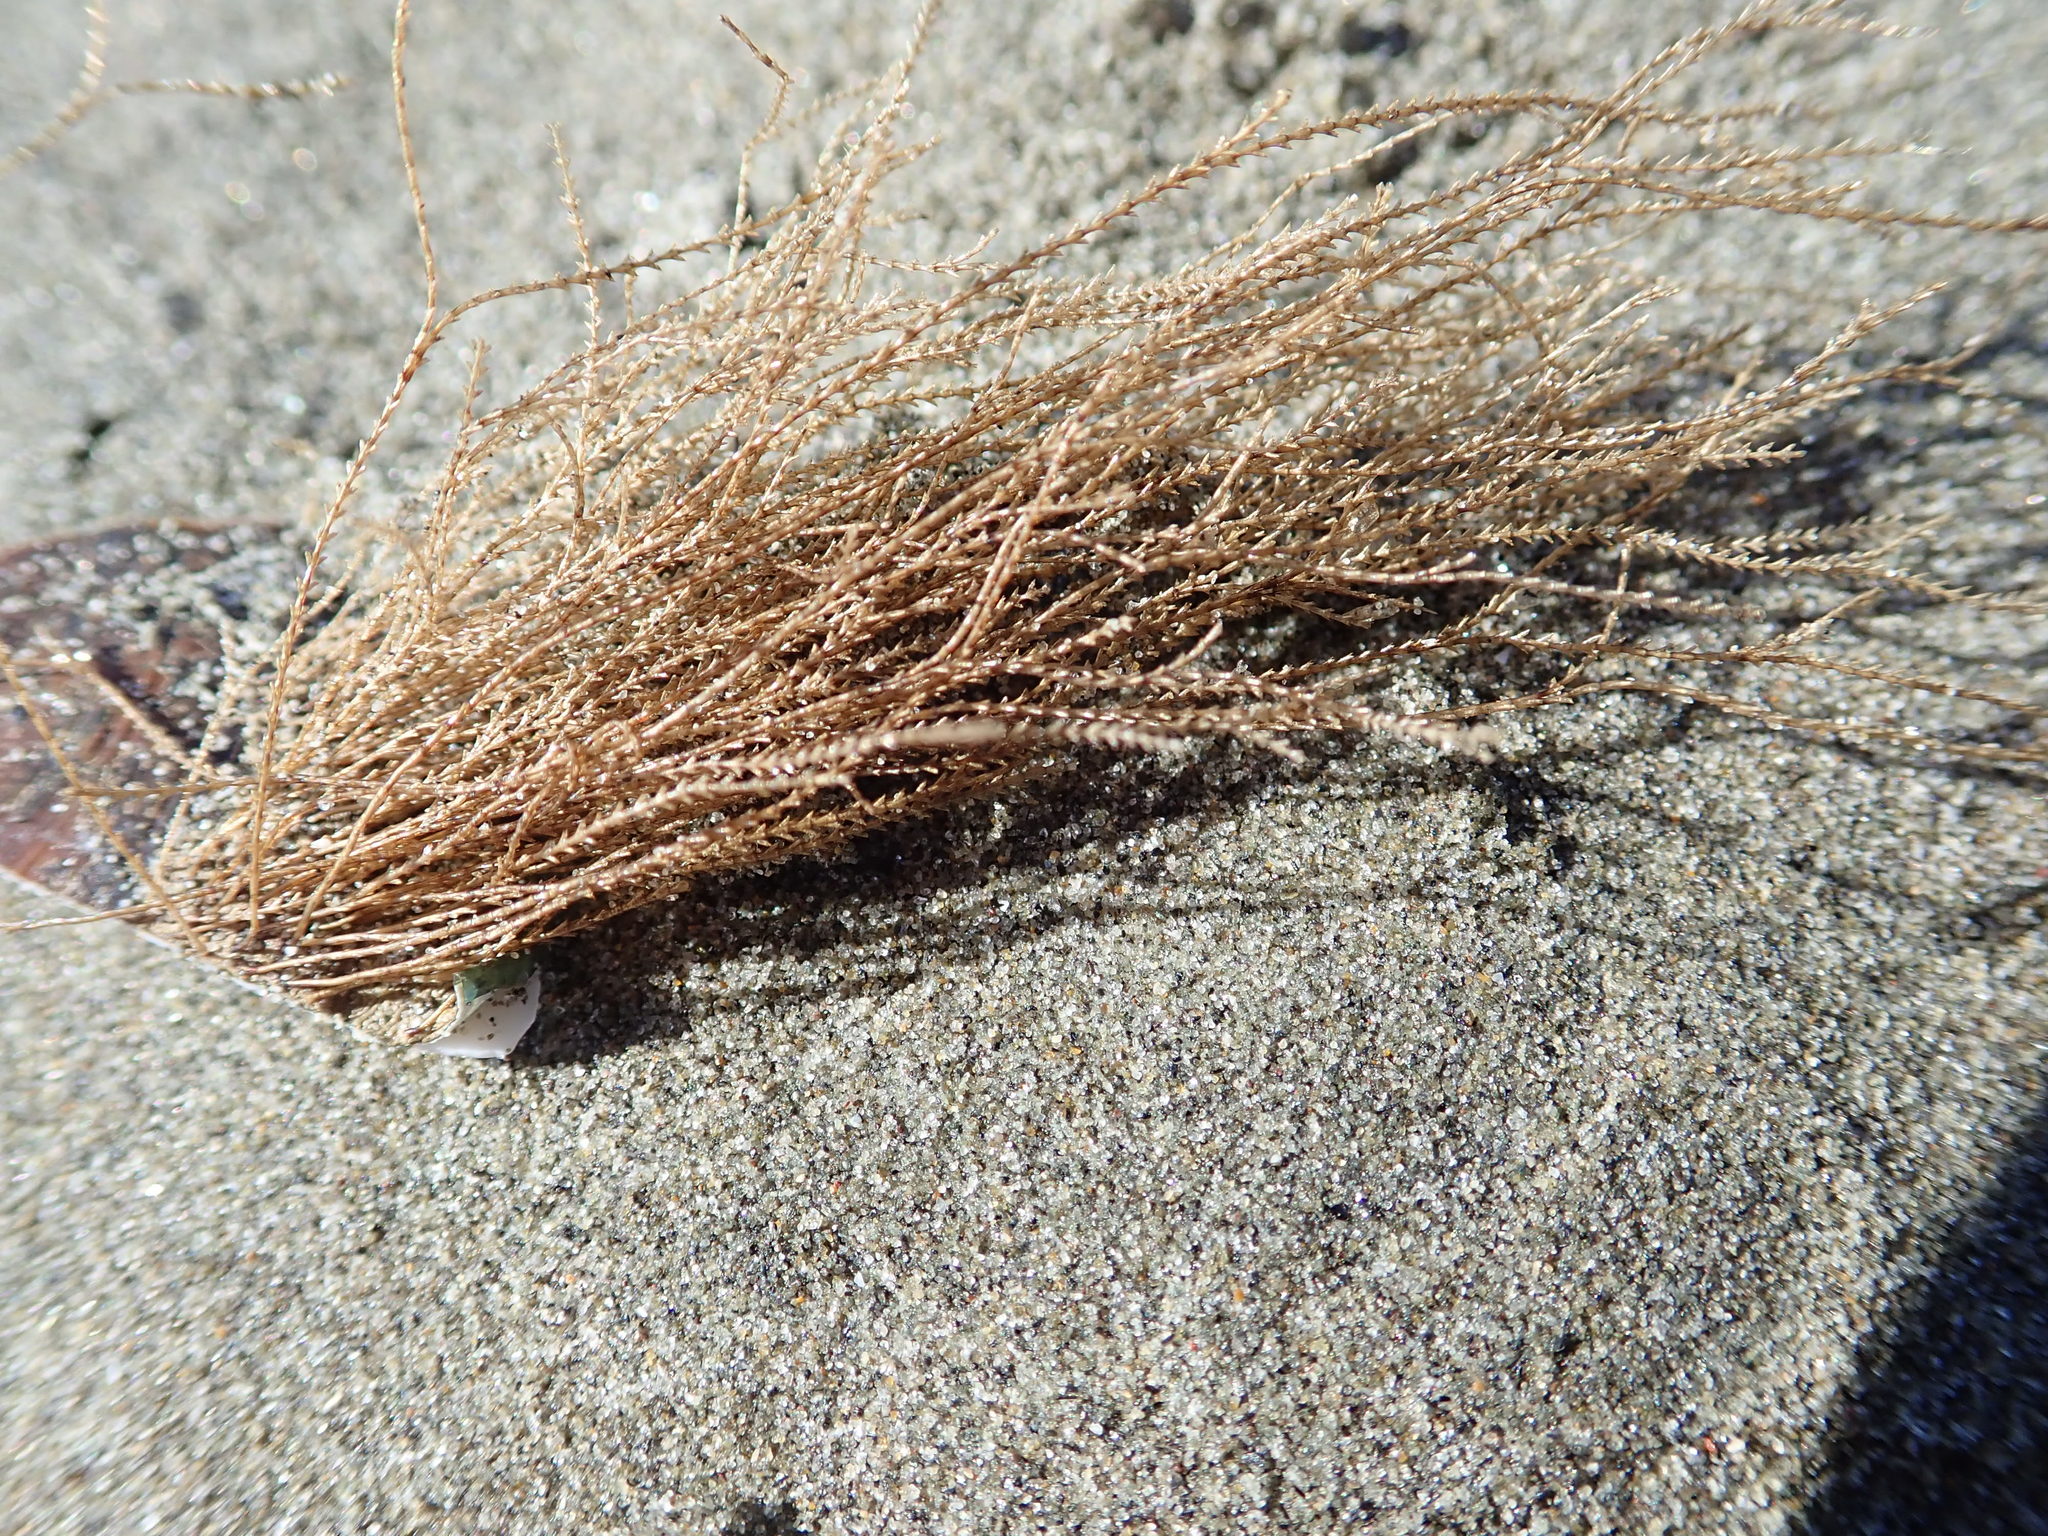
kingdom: Animalia
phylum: Cnidaria
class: Hydrozoa
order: Leptothecata
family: Sertulariidae
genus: Amphisbetia
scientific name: Amphisbetia bispinosa
